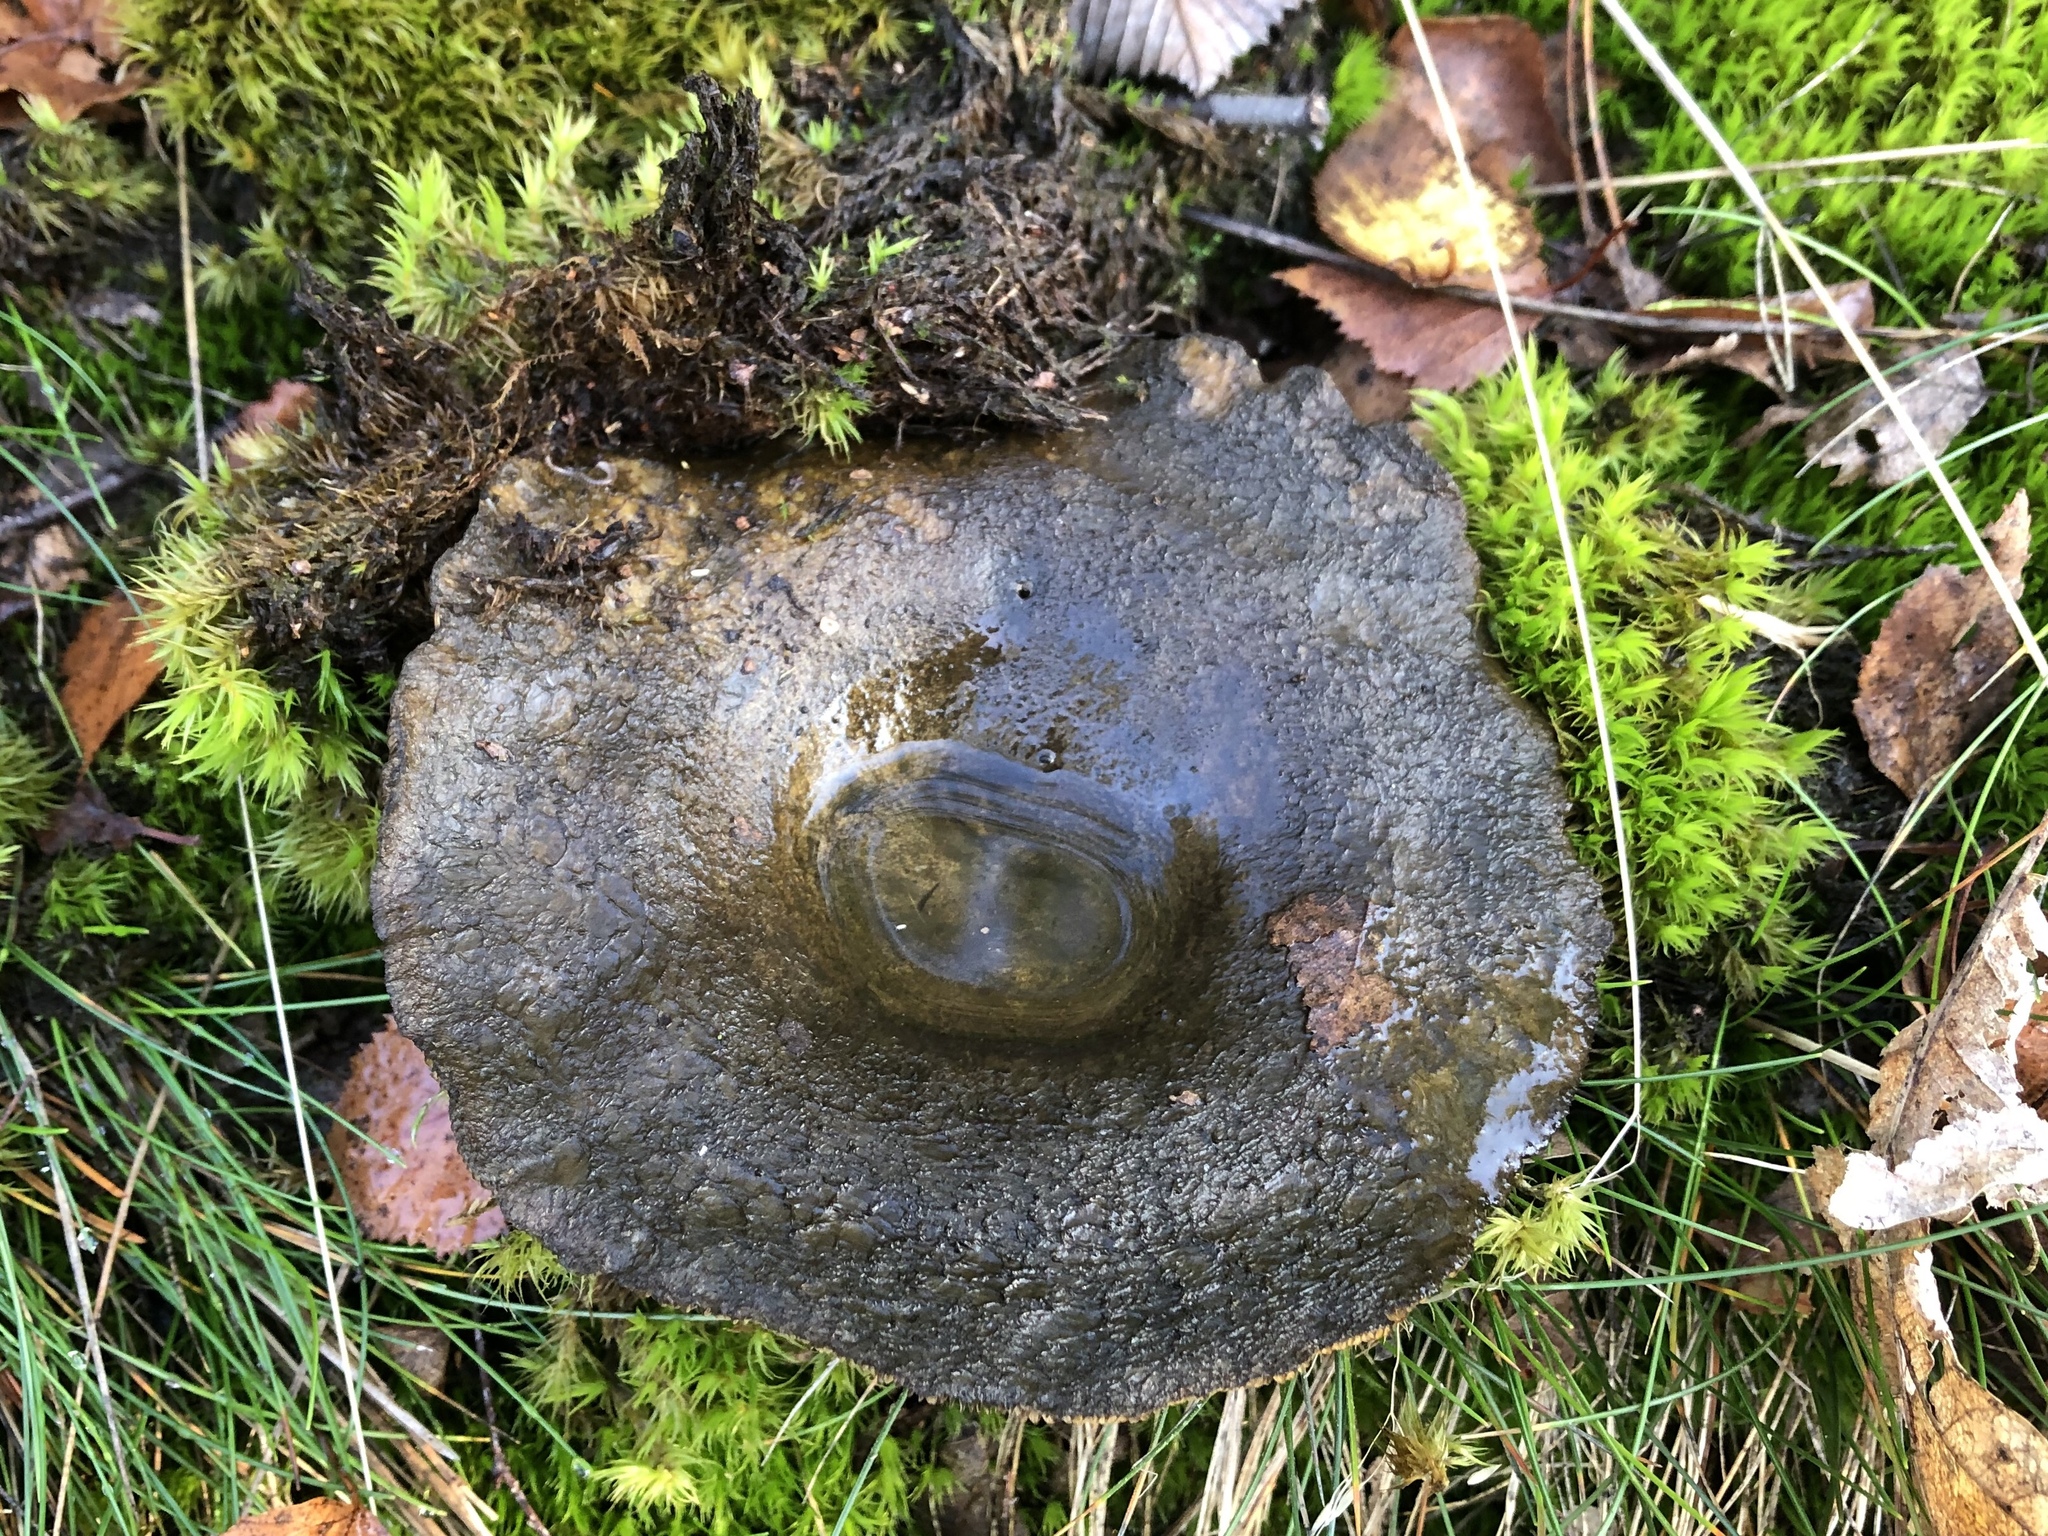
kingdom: Fungi
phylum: Basidiomycota
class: Agaricomycetes
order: Russulales
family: Russulaceae
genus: Lactarius
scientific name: Lactarius turpis
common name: Ugly milk-cap
